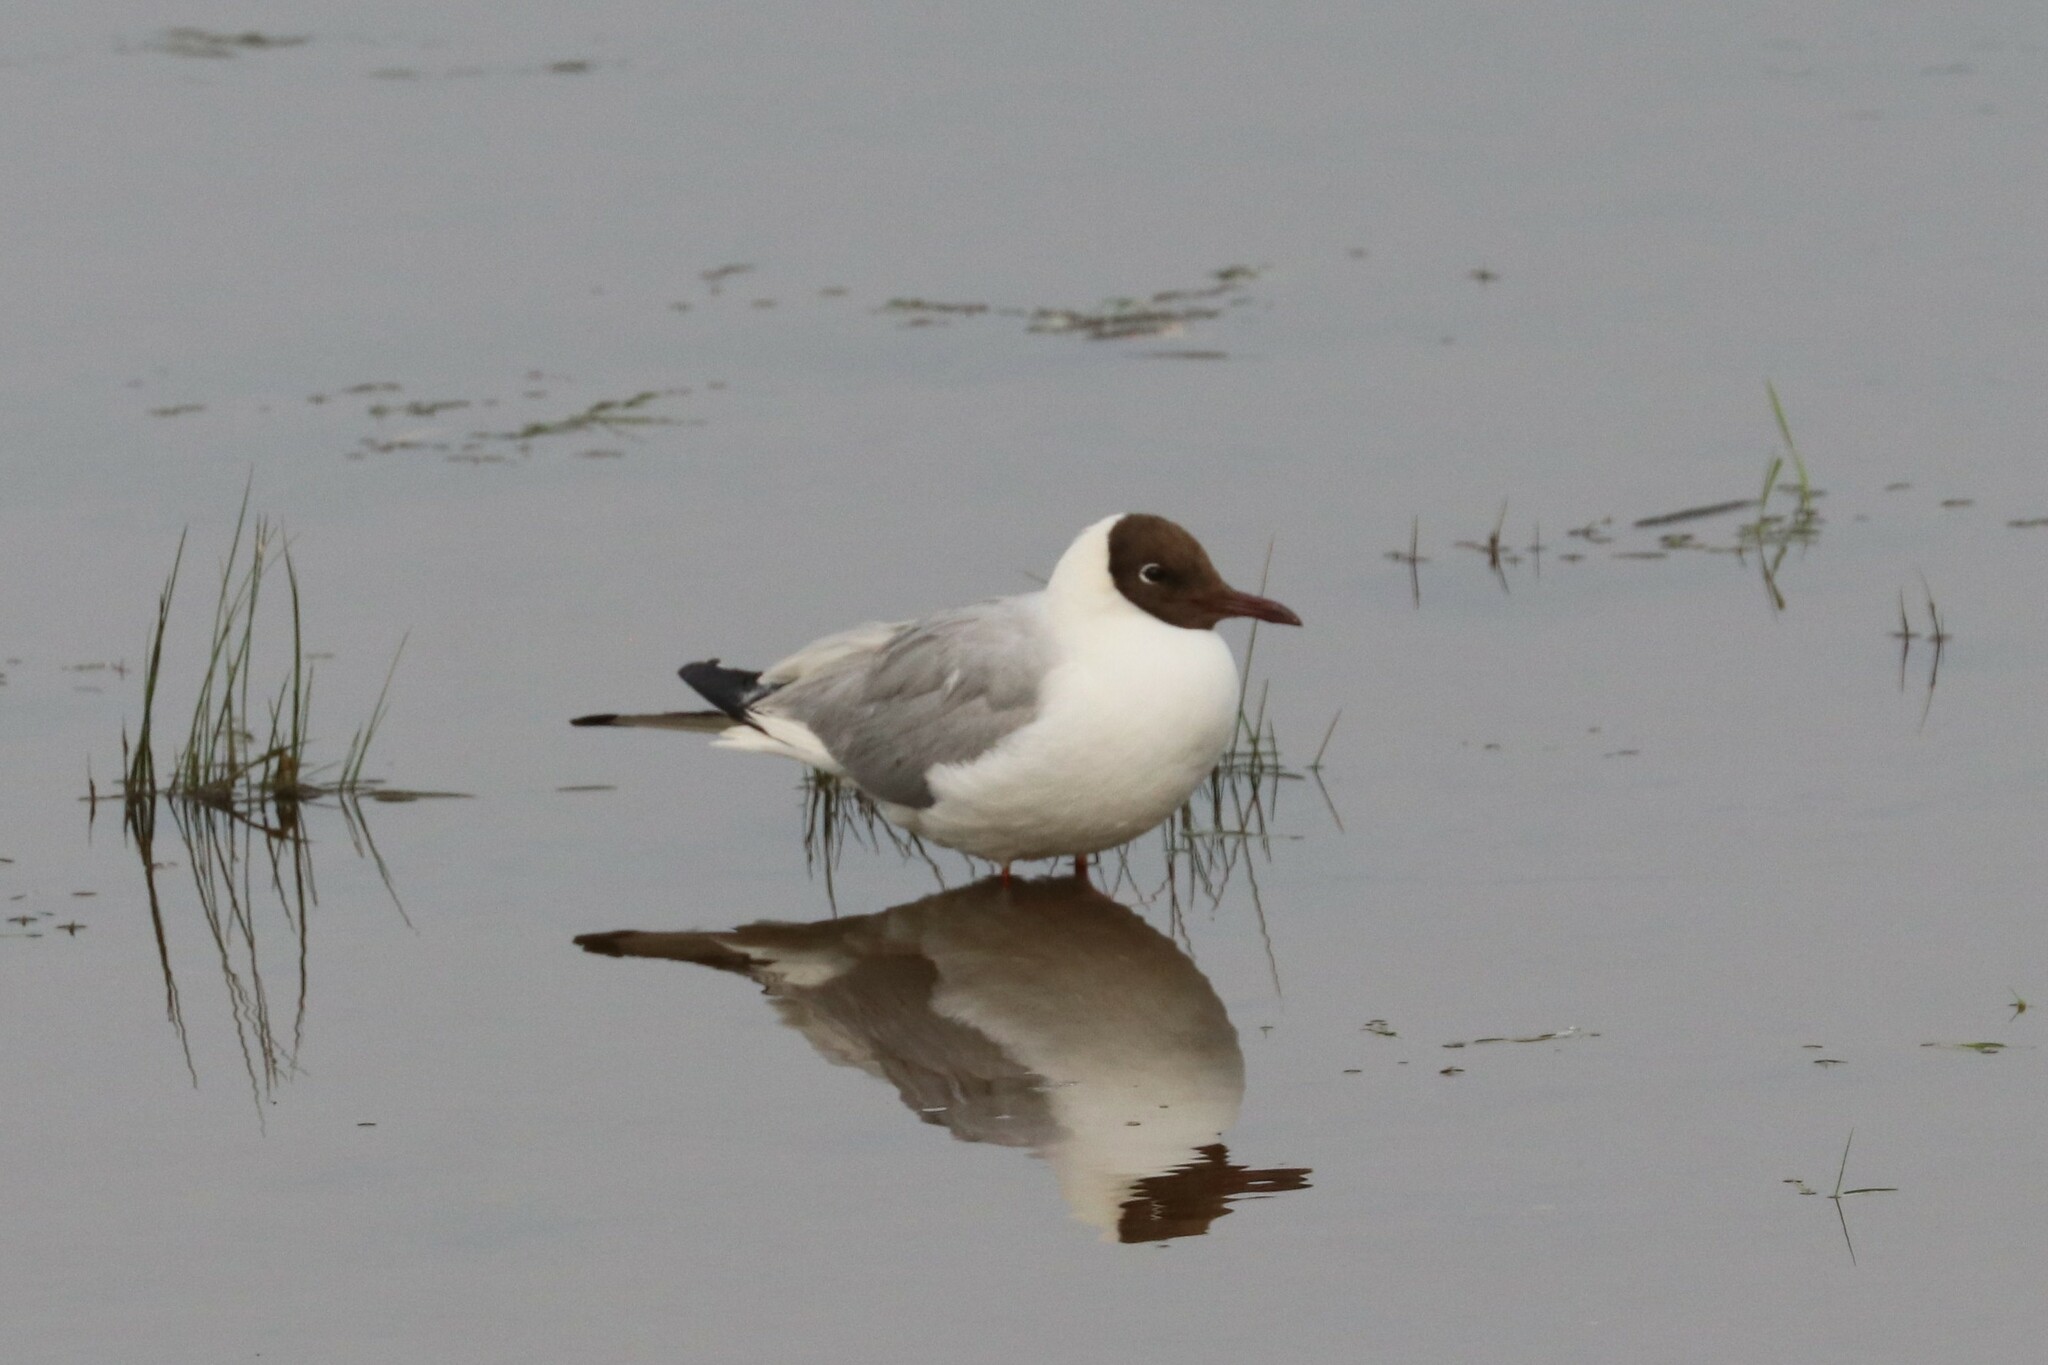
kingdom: Animalia
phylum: Chordata
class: Aves
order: Charadriiformes
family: Laridae
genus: Chroicocephalus
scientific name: Chroicocephalus ridibundus
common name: Black-headed gull
